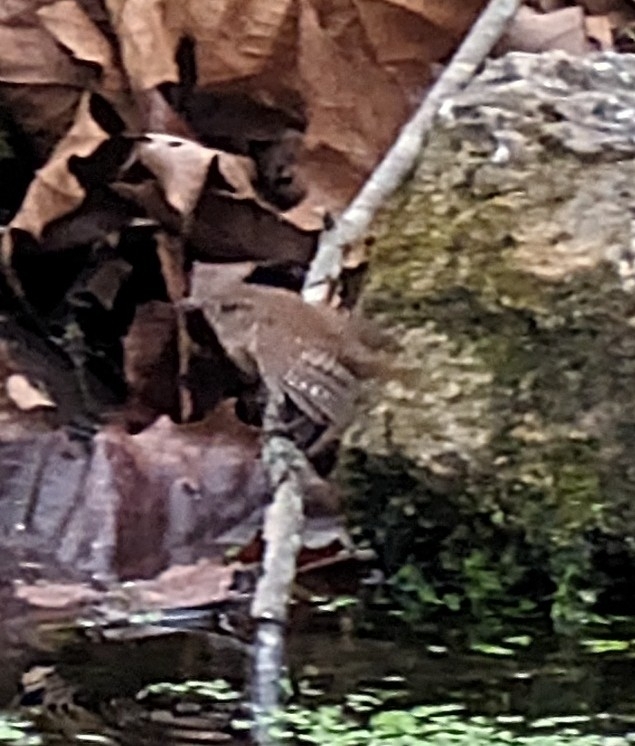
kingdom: Animalia
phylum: Chordata
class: Aves
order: Passeriformes
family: Troglodytidae
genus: Troglodytes
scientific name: Troglodytes hiemalis
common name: Winter wren
